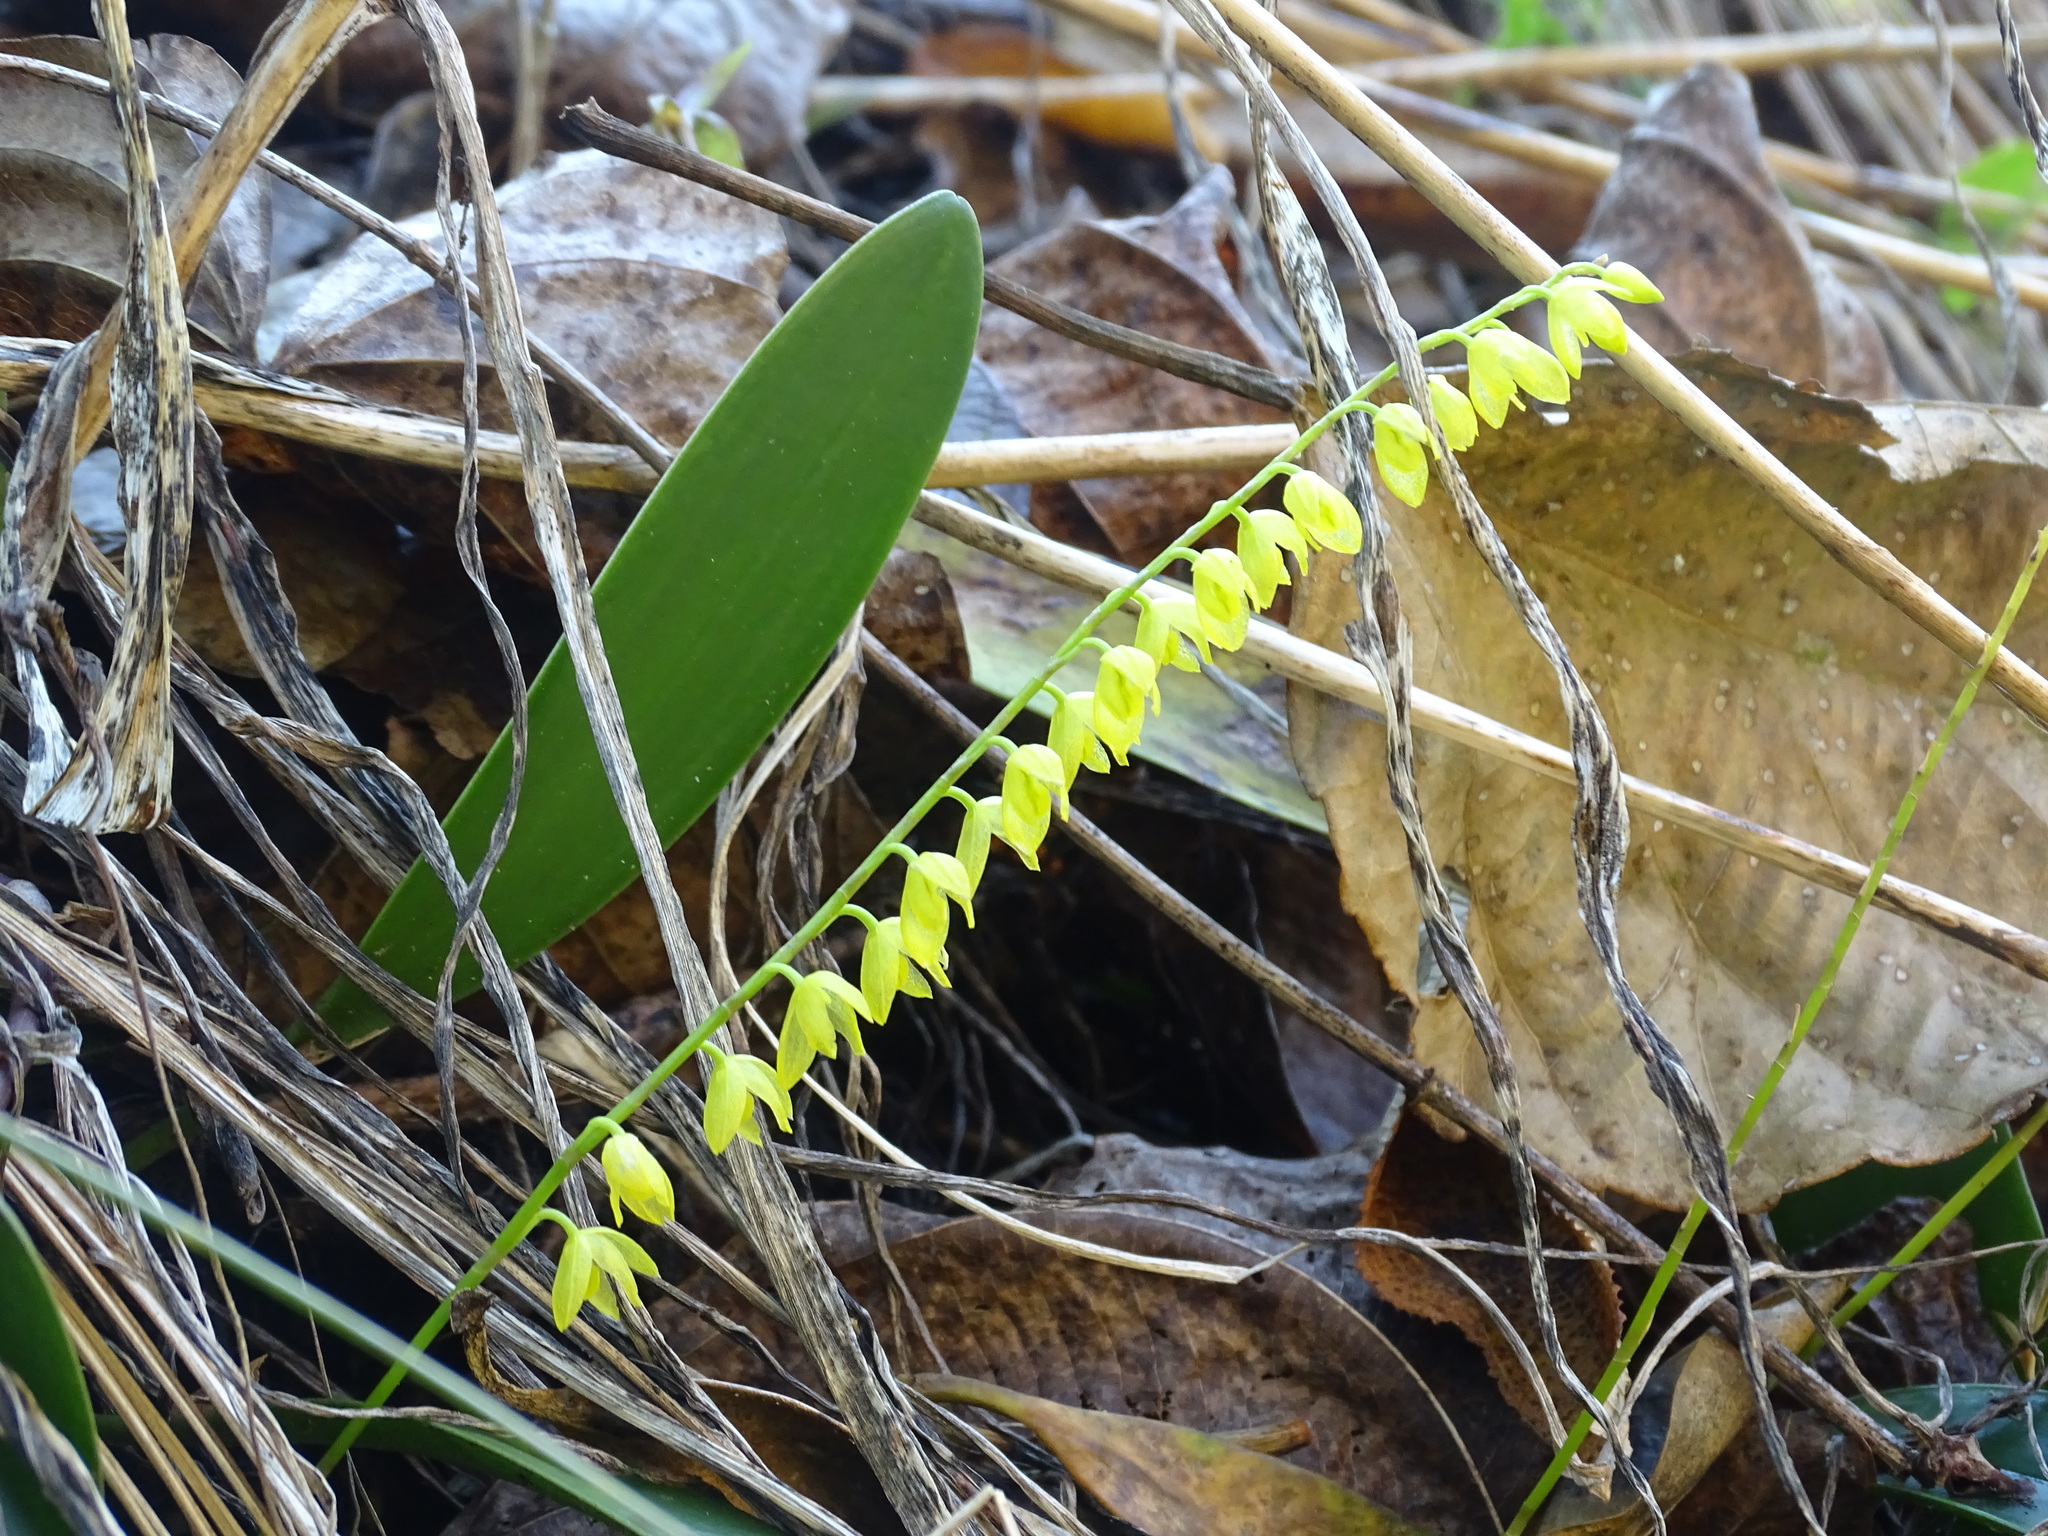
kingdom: Plantae
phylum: Tracheophyta
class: Liliopsida
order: Asparagales
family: Orchidaceae
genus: Pleurothallis
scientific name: Pleurothallis quadrifida
